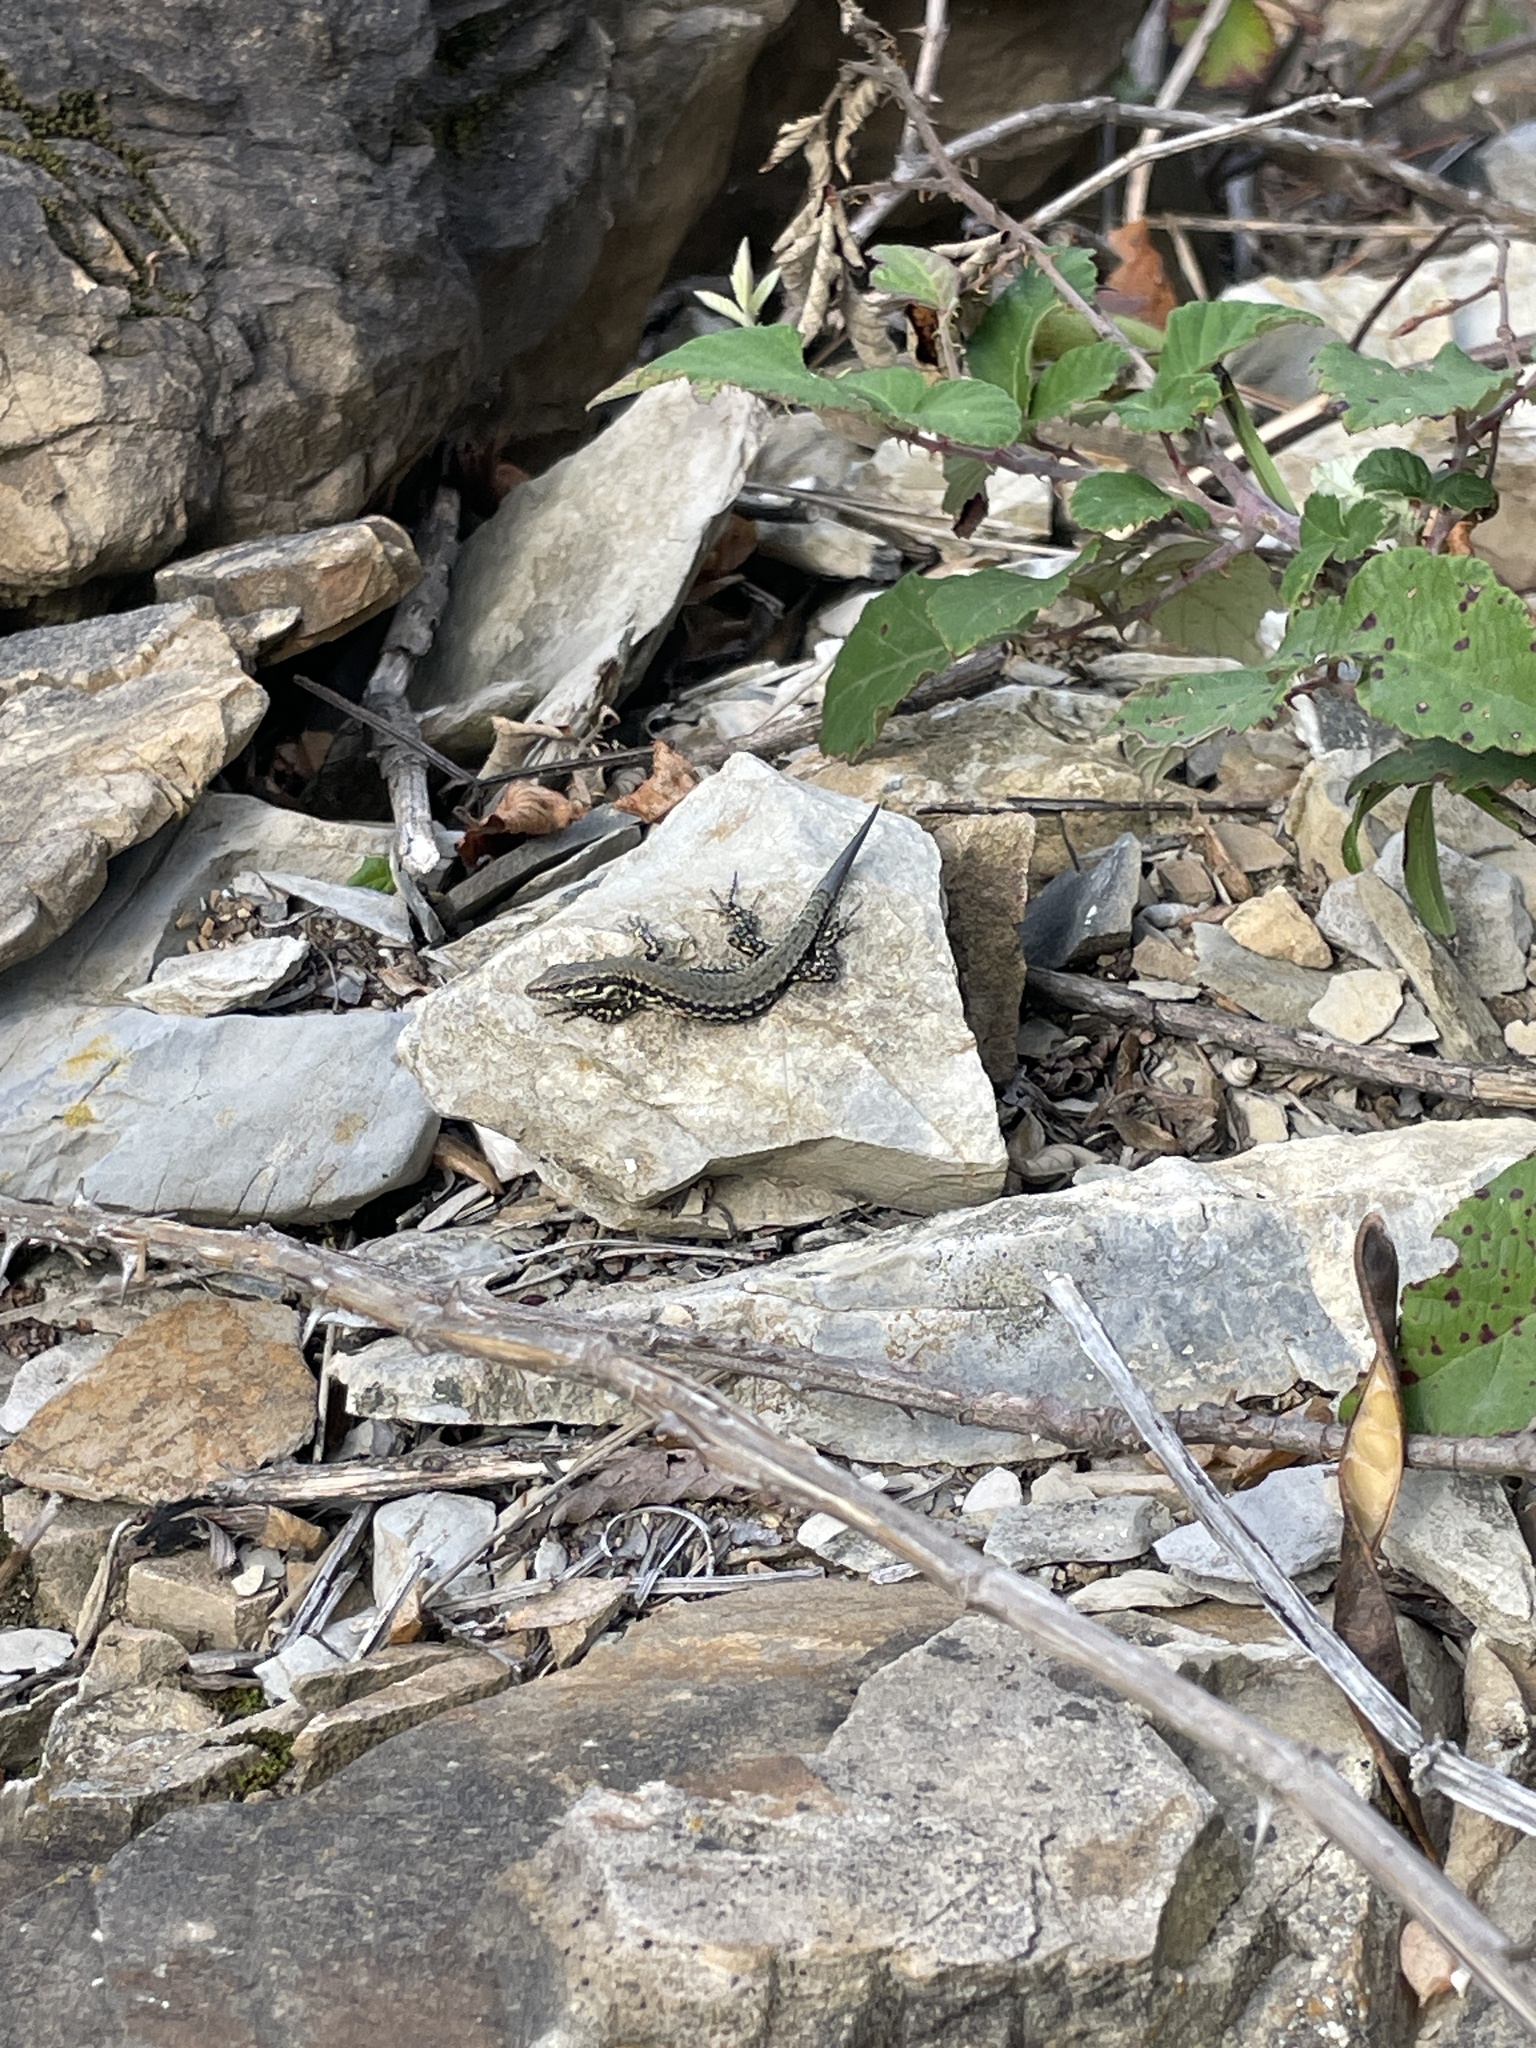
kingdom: Animalia
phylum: Chordata
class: Squamata
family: Lacertidae
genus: Podarcis
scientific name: Podarcis muralis
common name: Common wall lizard
